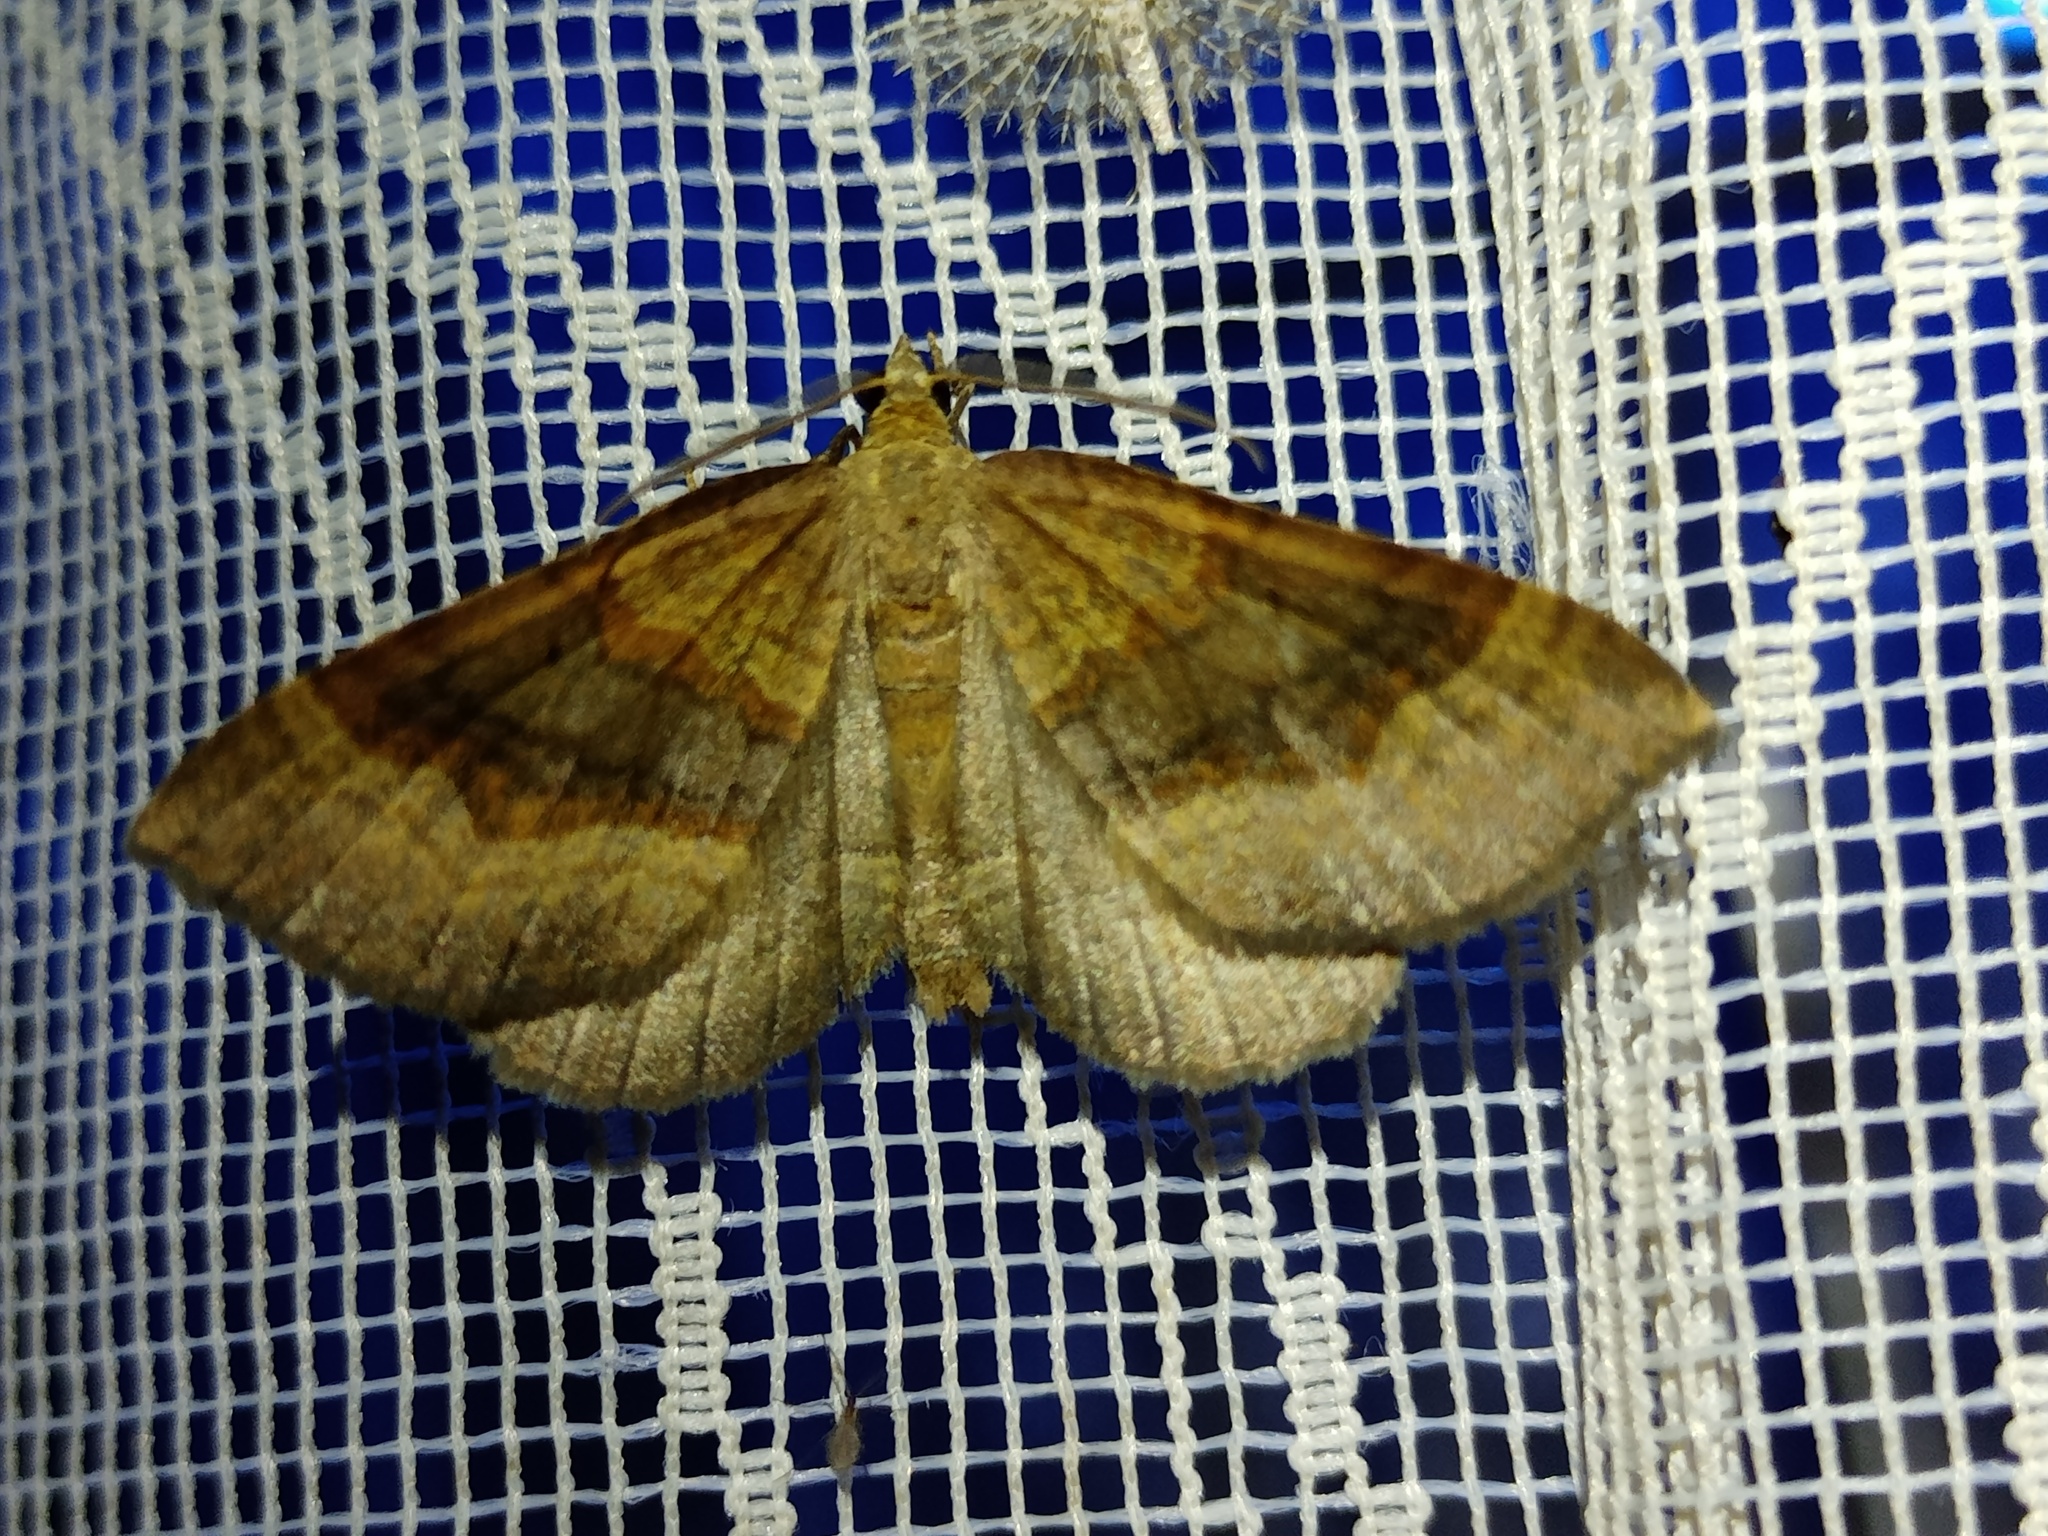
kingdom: Animalia
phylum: Arthropoda
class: Insecta
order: Lepidoptera
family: Geometridae
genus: Scotopteryx
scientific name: Scotopteryx chenopodiata
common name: Shaded broad-bar
